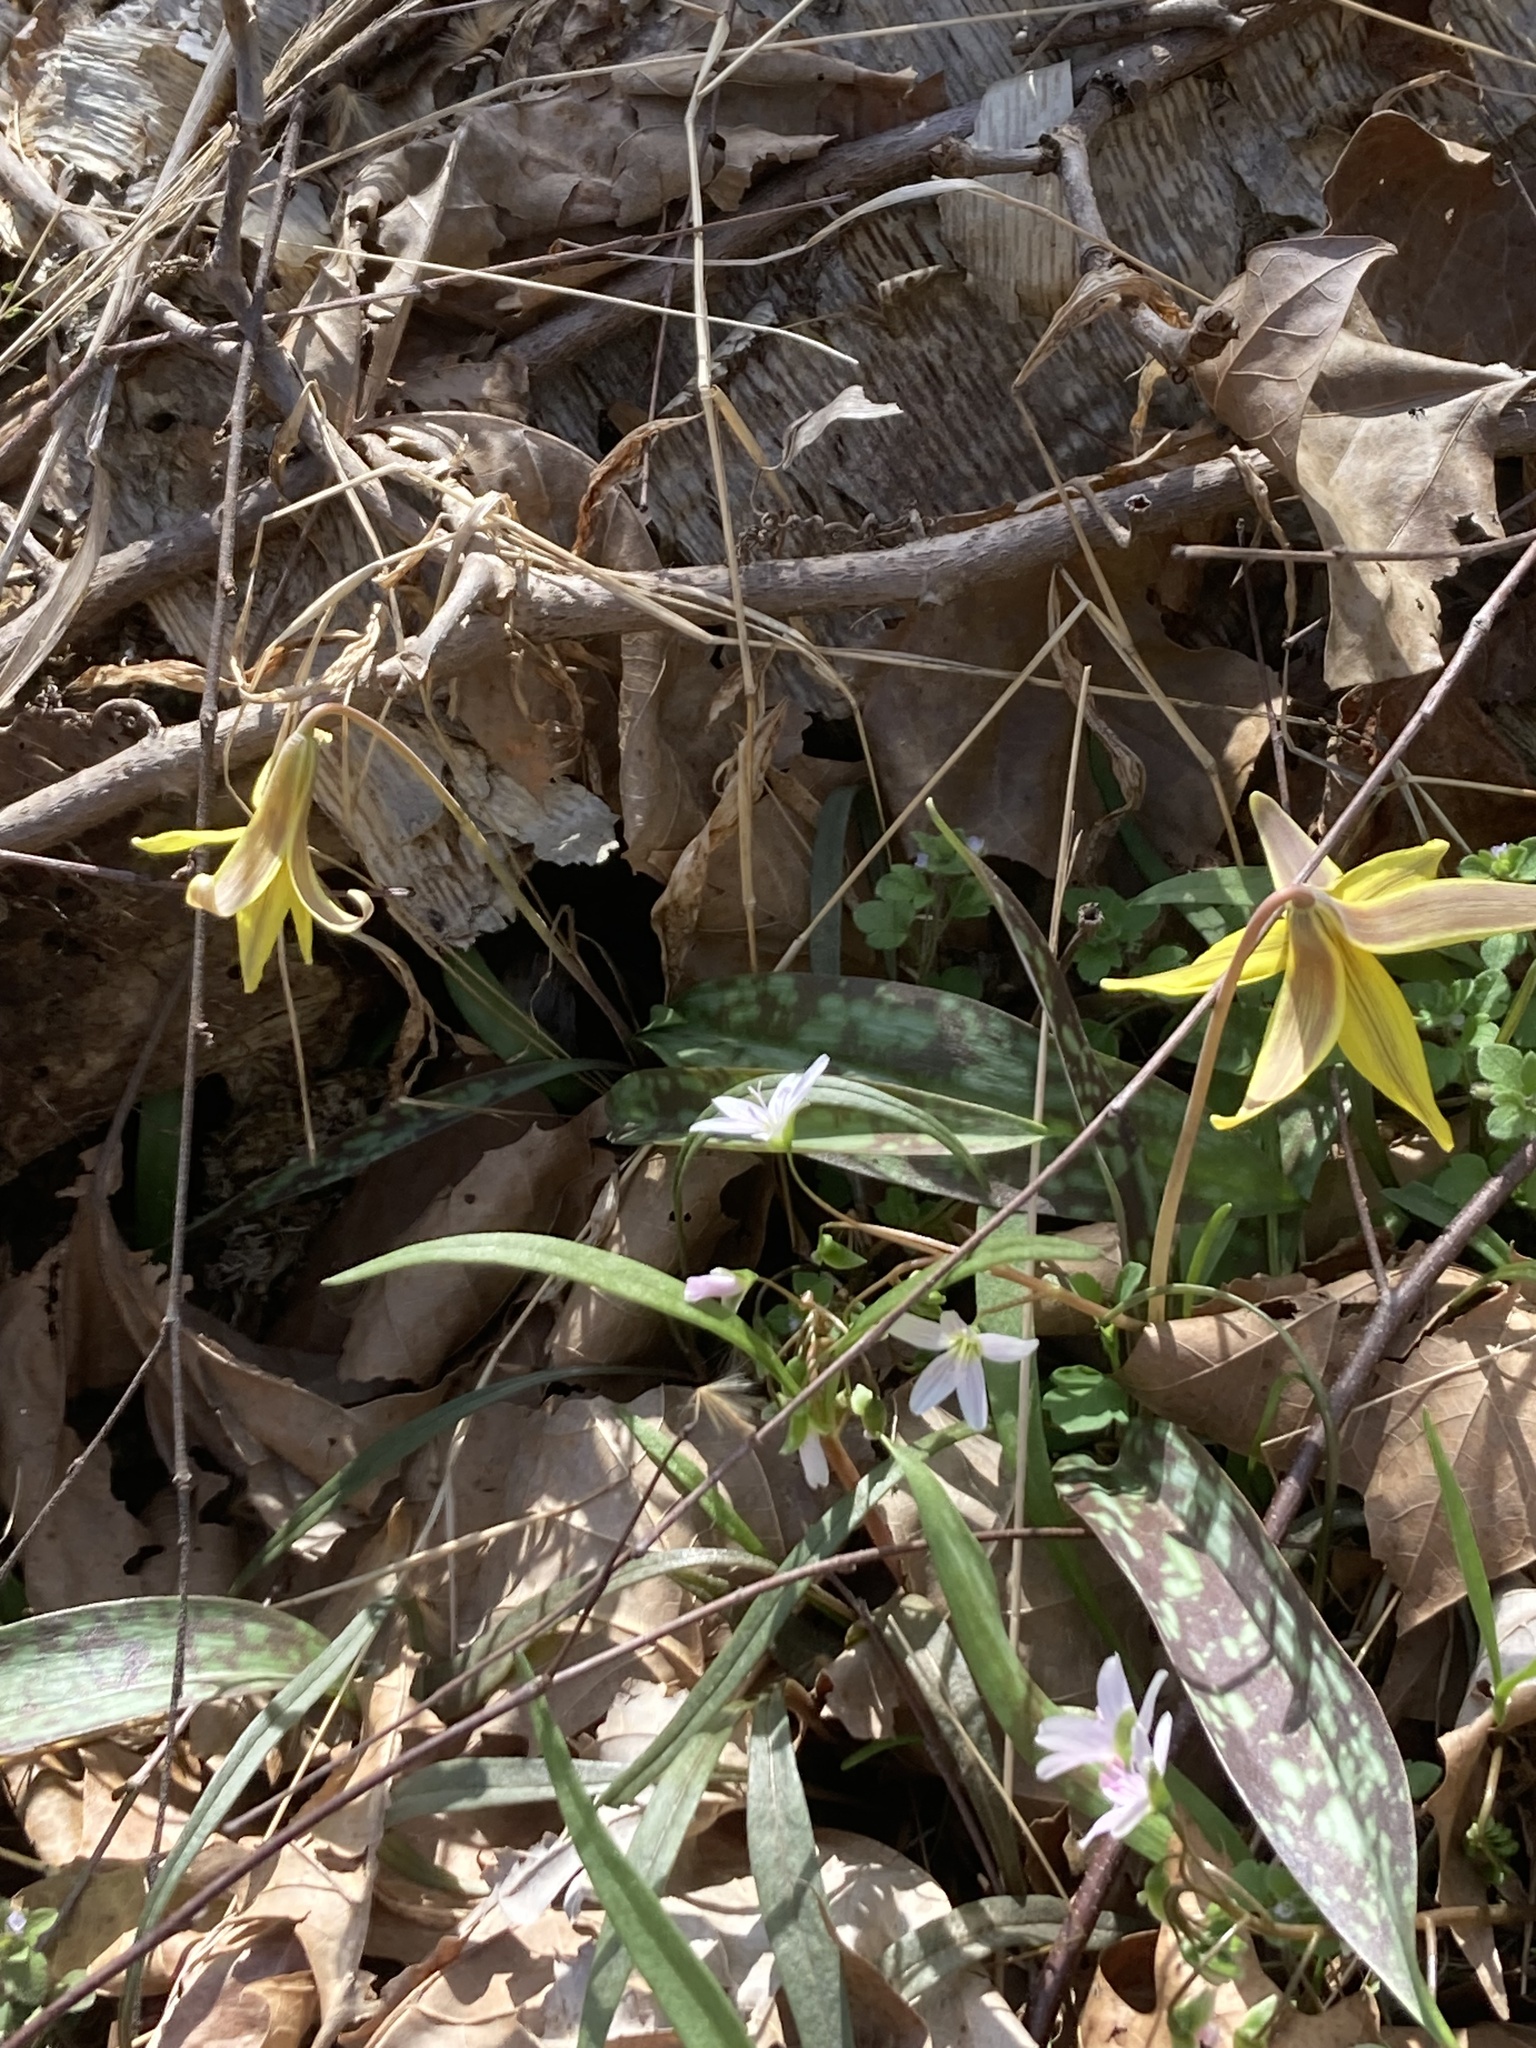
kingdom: Plantae
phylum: Tracheophyta
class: Liliopsida
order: Liliales
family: Liliaceae
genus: Erythronium
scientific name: Erythronium americanum
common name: Yellow adder's-tongue
